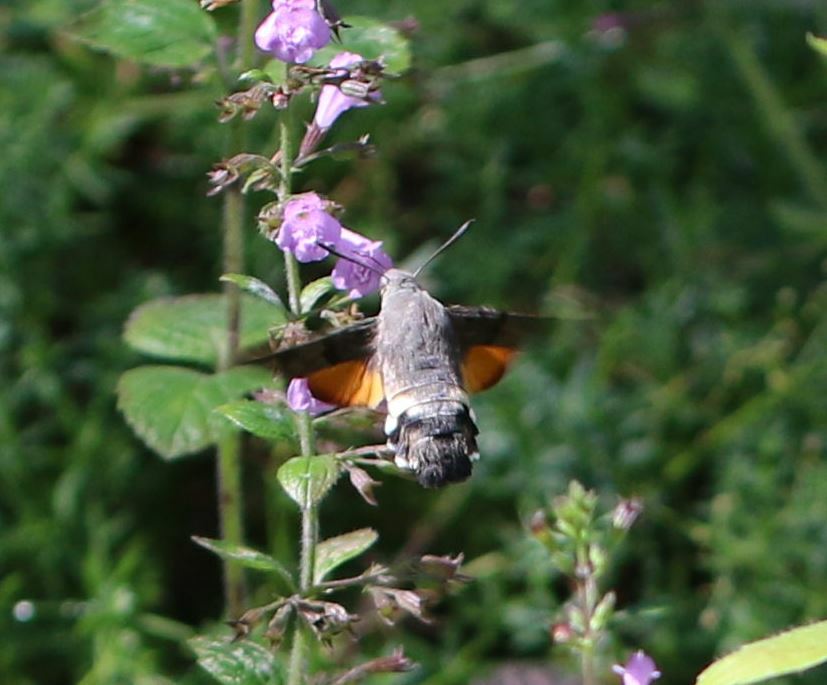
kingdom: Animalia
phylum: Arthropoda
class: Insecta
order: Lepidoptera
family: Sphingidae
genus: Macroglossum
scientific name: Macroglossum stellatarum
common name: Humming-bird hawk-moth
